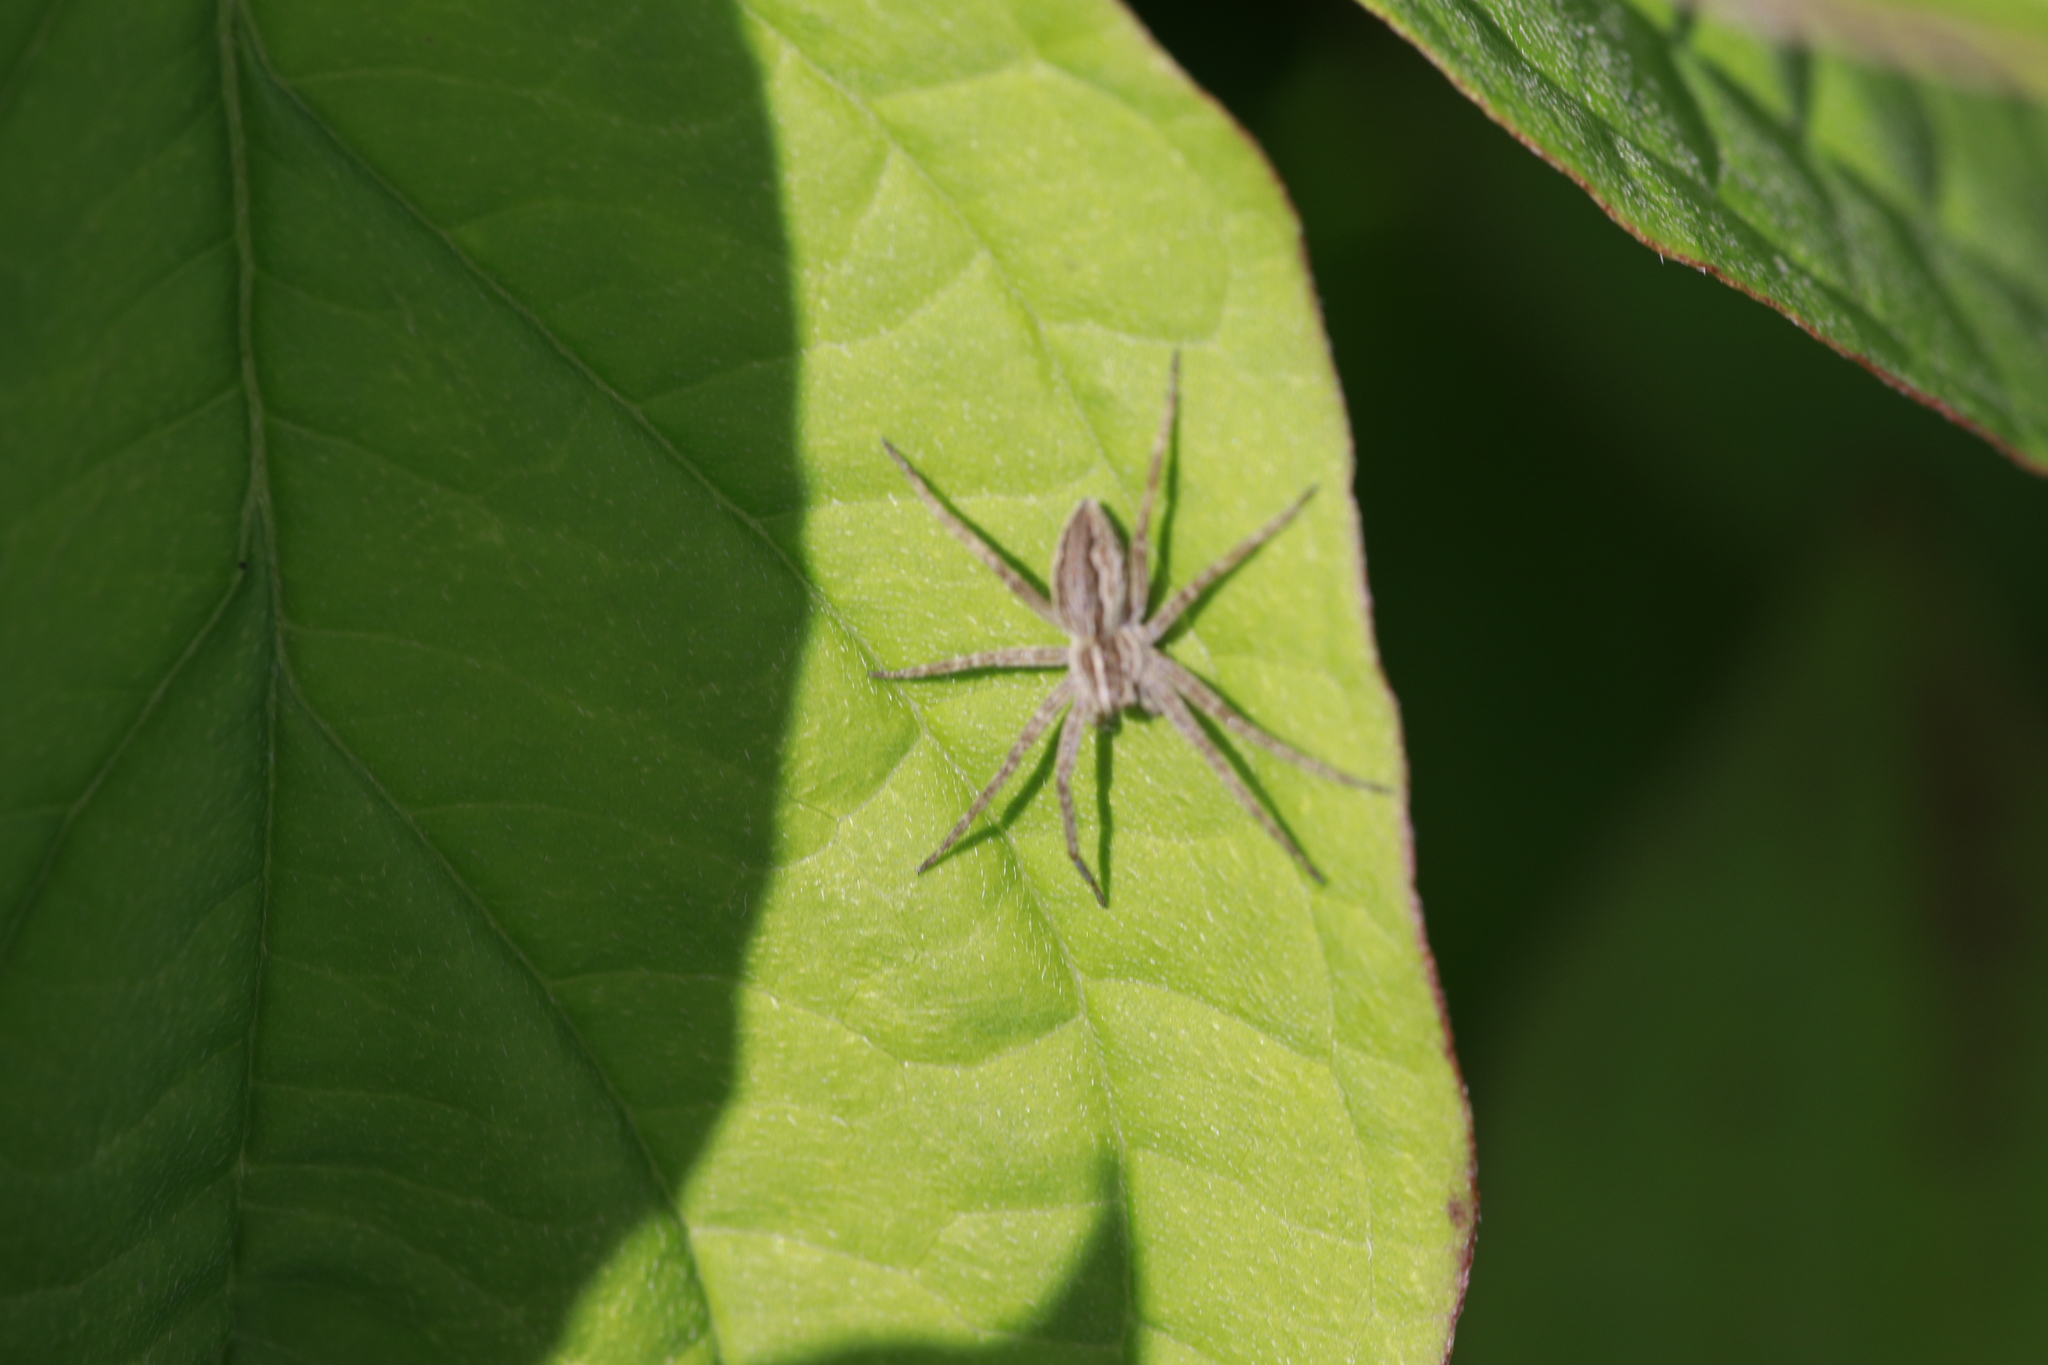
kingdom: Animalia
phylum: Arthropoda
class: Arachnida
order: Araneae
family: Pisauridae
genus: Pisaura
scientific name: Pisaura mirabilis
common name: Tent spider
